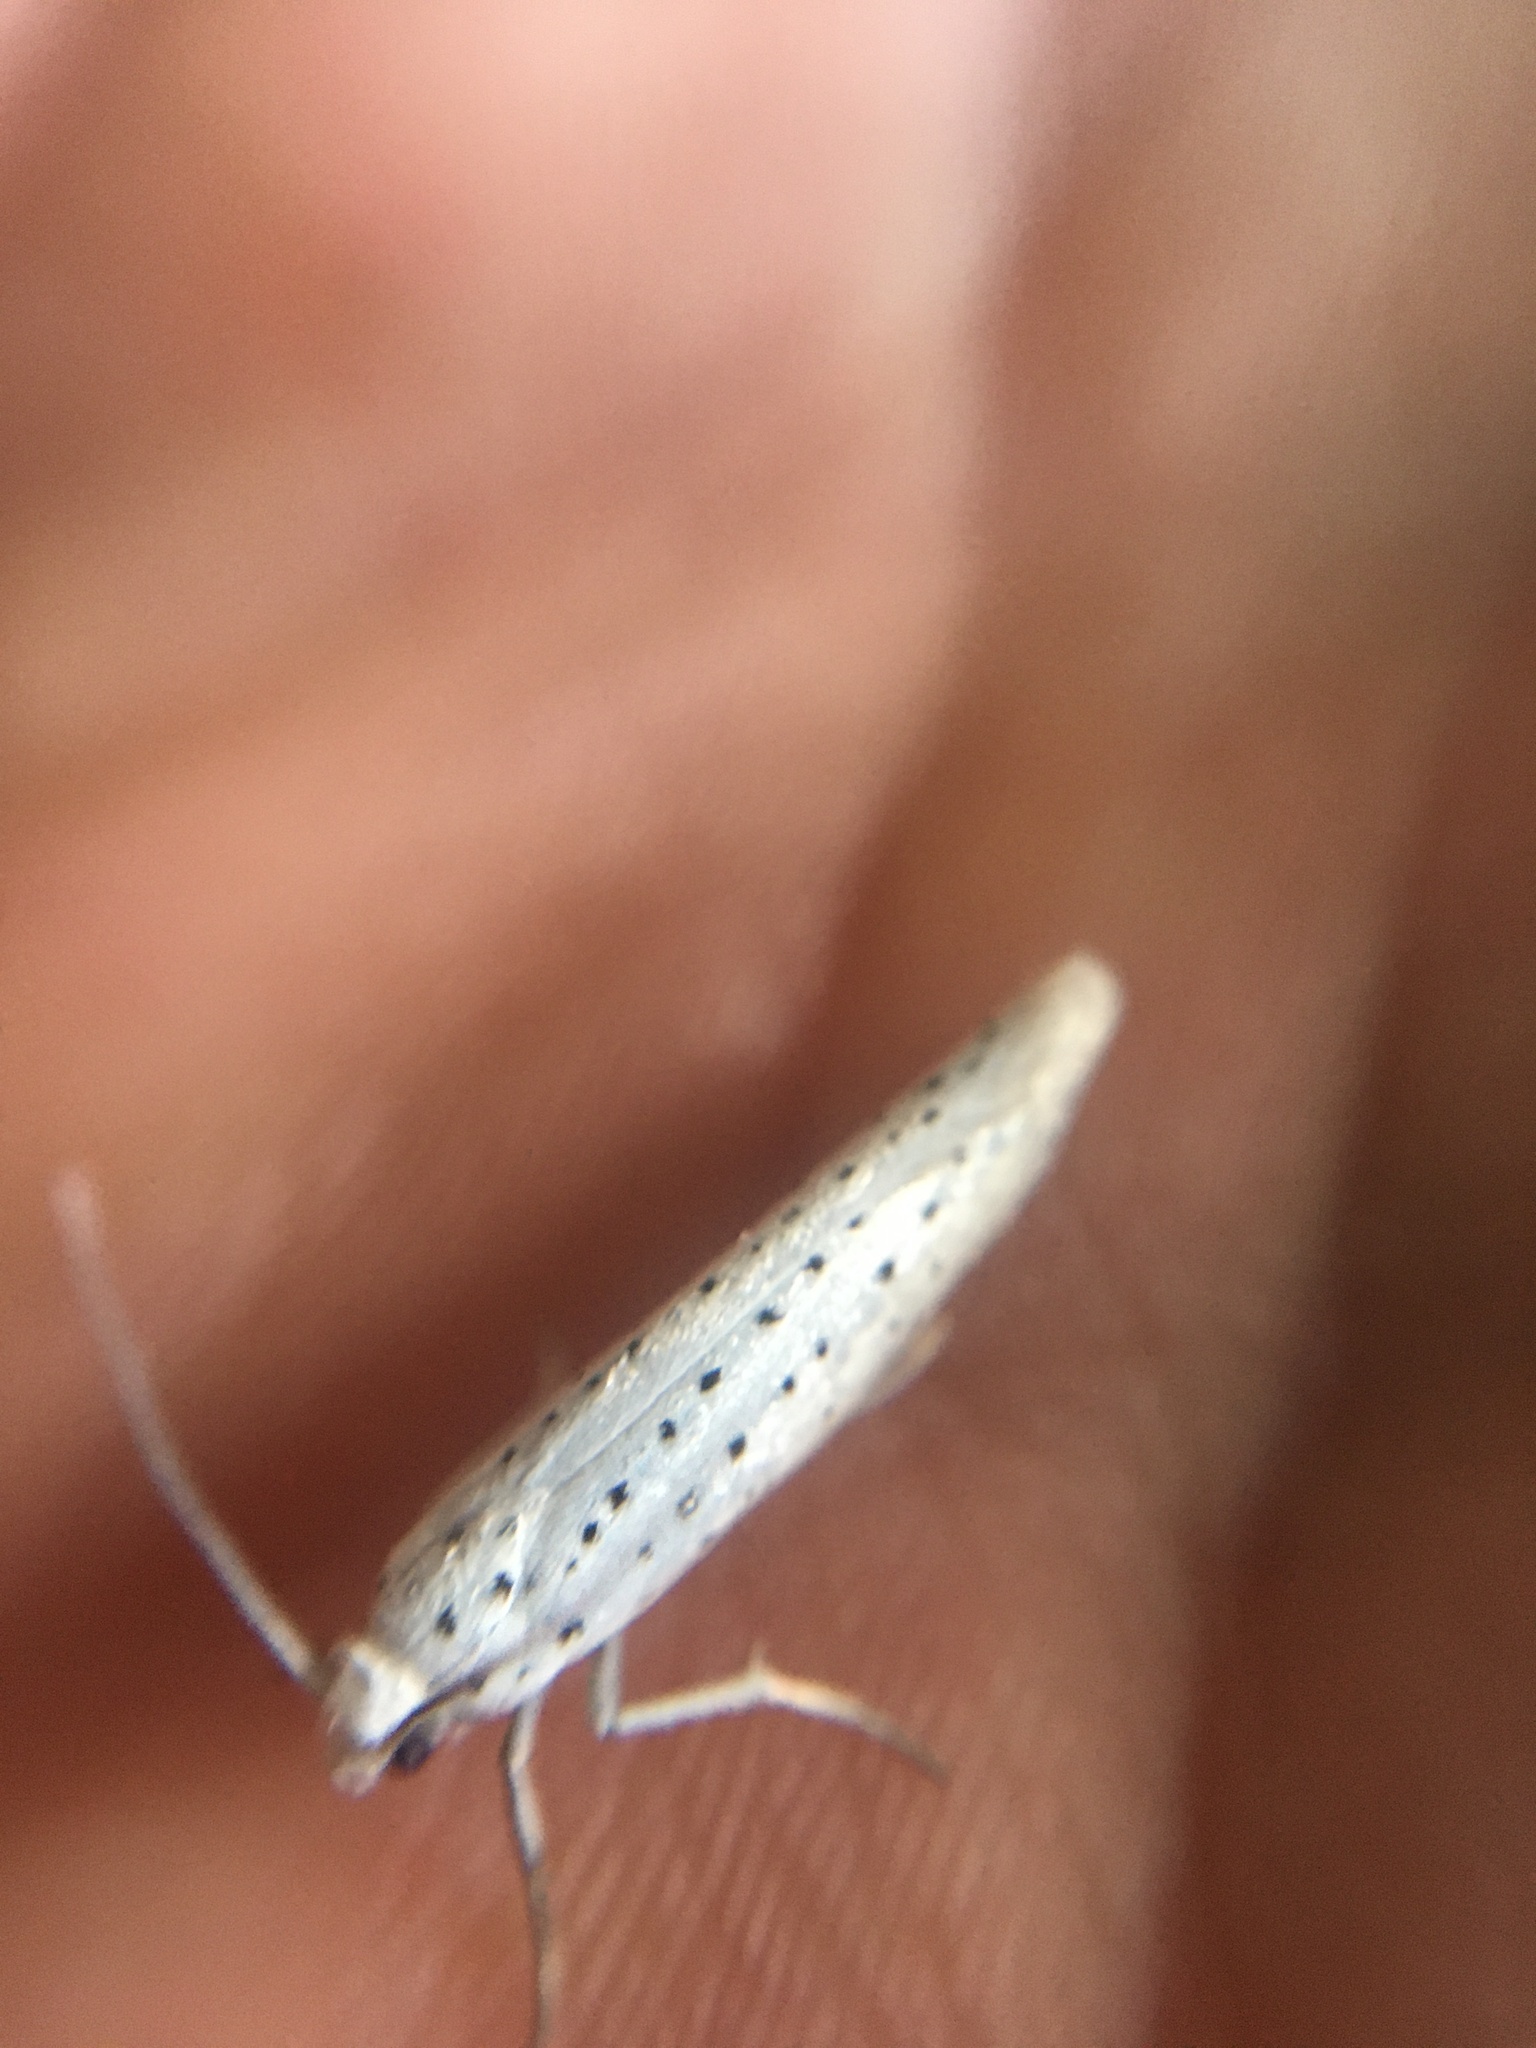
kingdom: Animalia
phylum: Arthropoda
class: Insecta
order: Lepidoptera
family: Yponomeutidae
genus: Yponomeuta
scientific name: Yponomeuta evonymella
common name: Bird-cherry ermine
